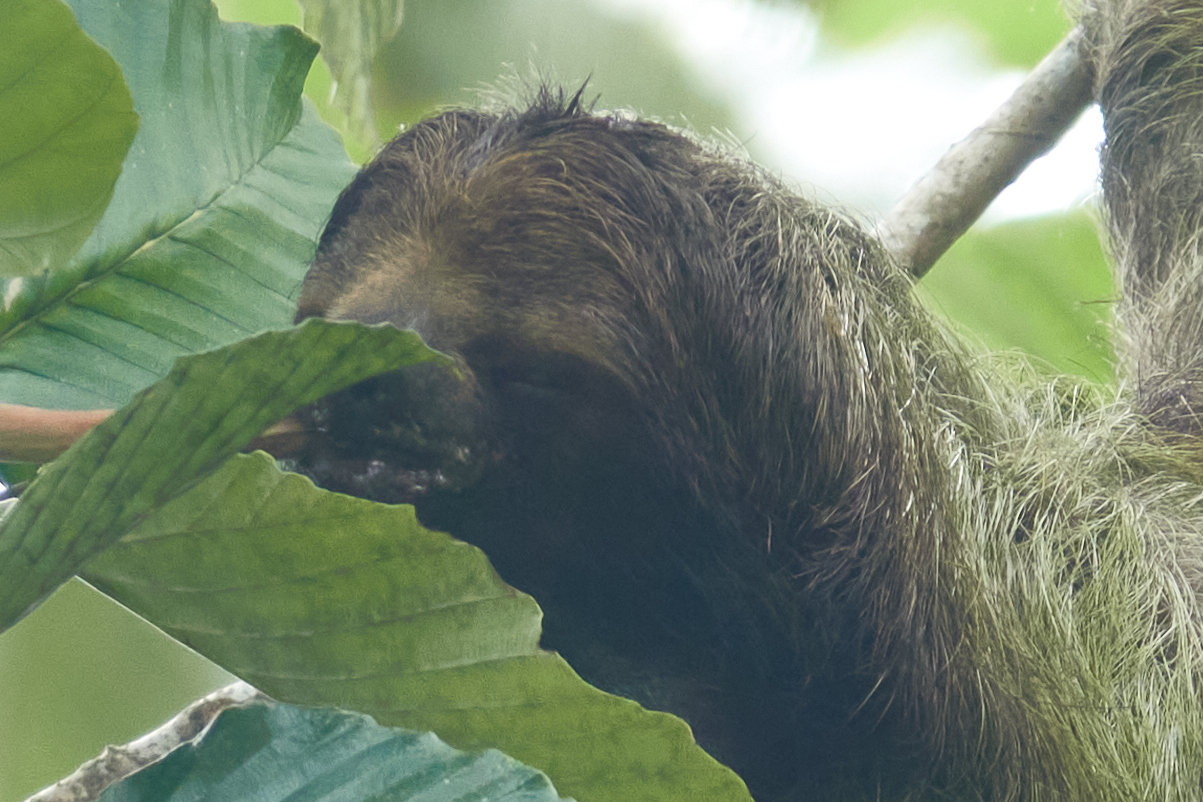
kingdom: Animalia
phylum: Chordata
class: Mammalia
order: Pilosa
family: Bradypodidae
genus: Bradypus
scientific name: Bradypus variegatus
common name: Brown-throated three-toed sloth
